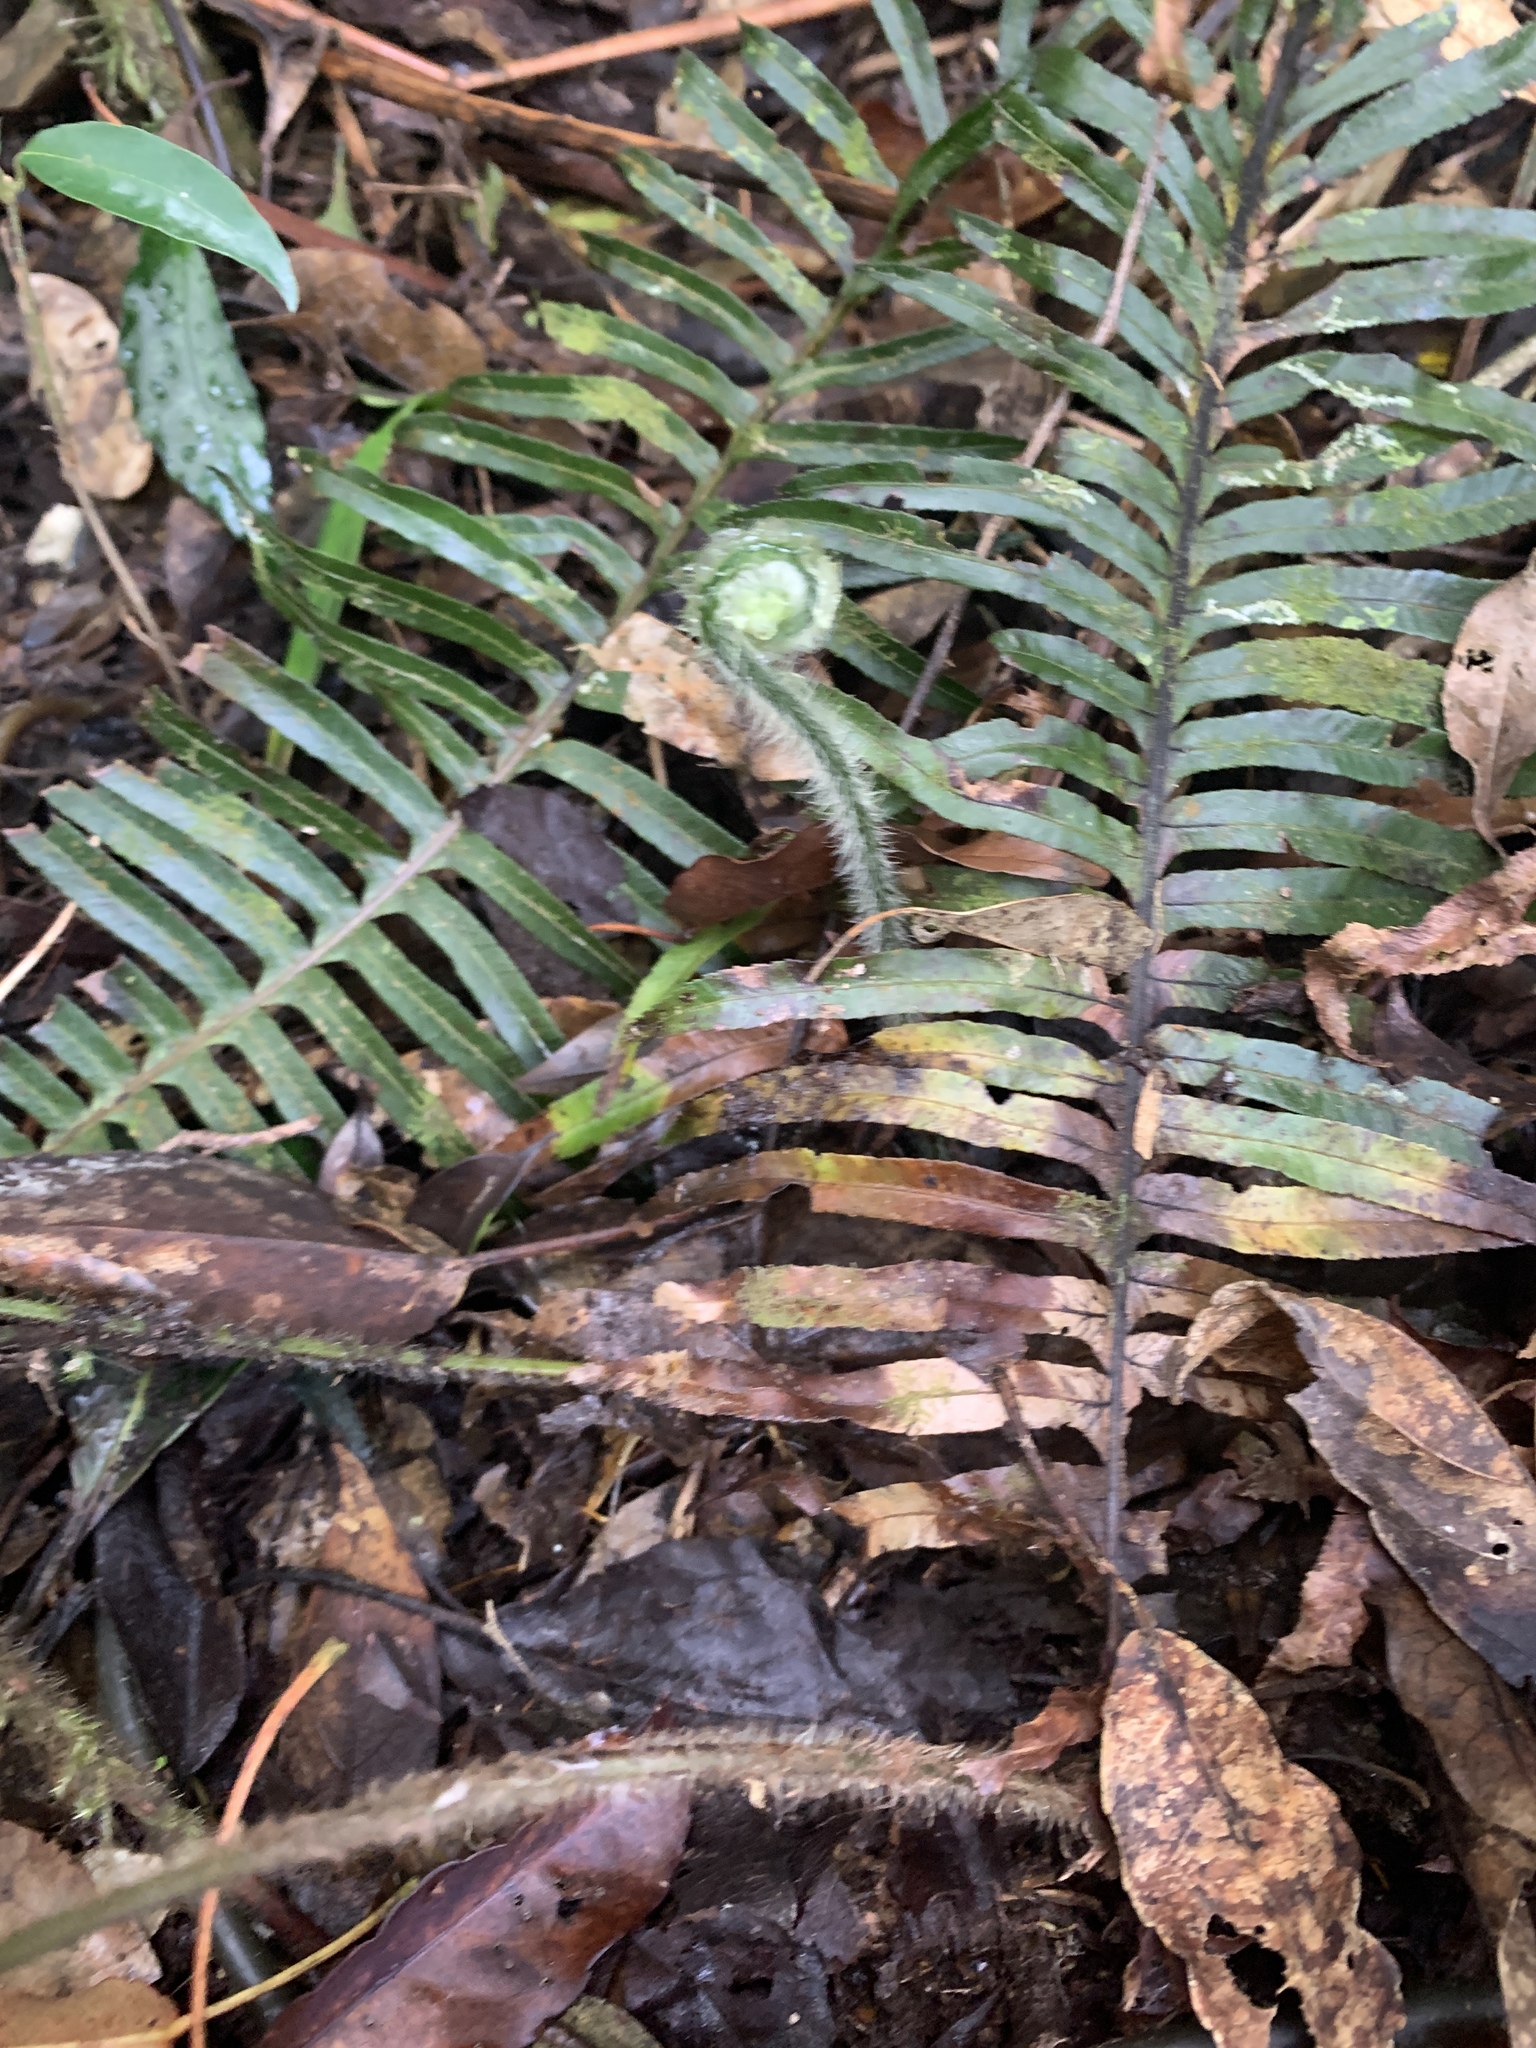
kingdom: Plantae
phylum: Tracheophyta
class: Polypodiopsida
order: Polypodiales
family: Dennstaedtiaceae
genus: Microlepia
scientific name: Microlepia trichocarpa
